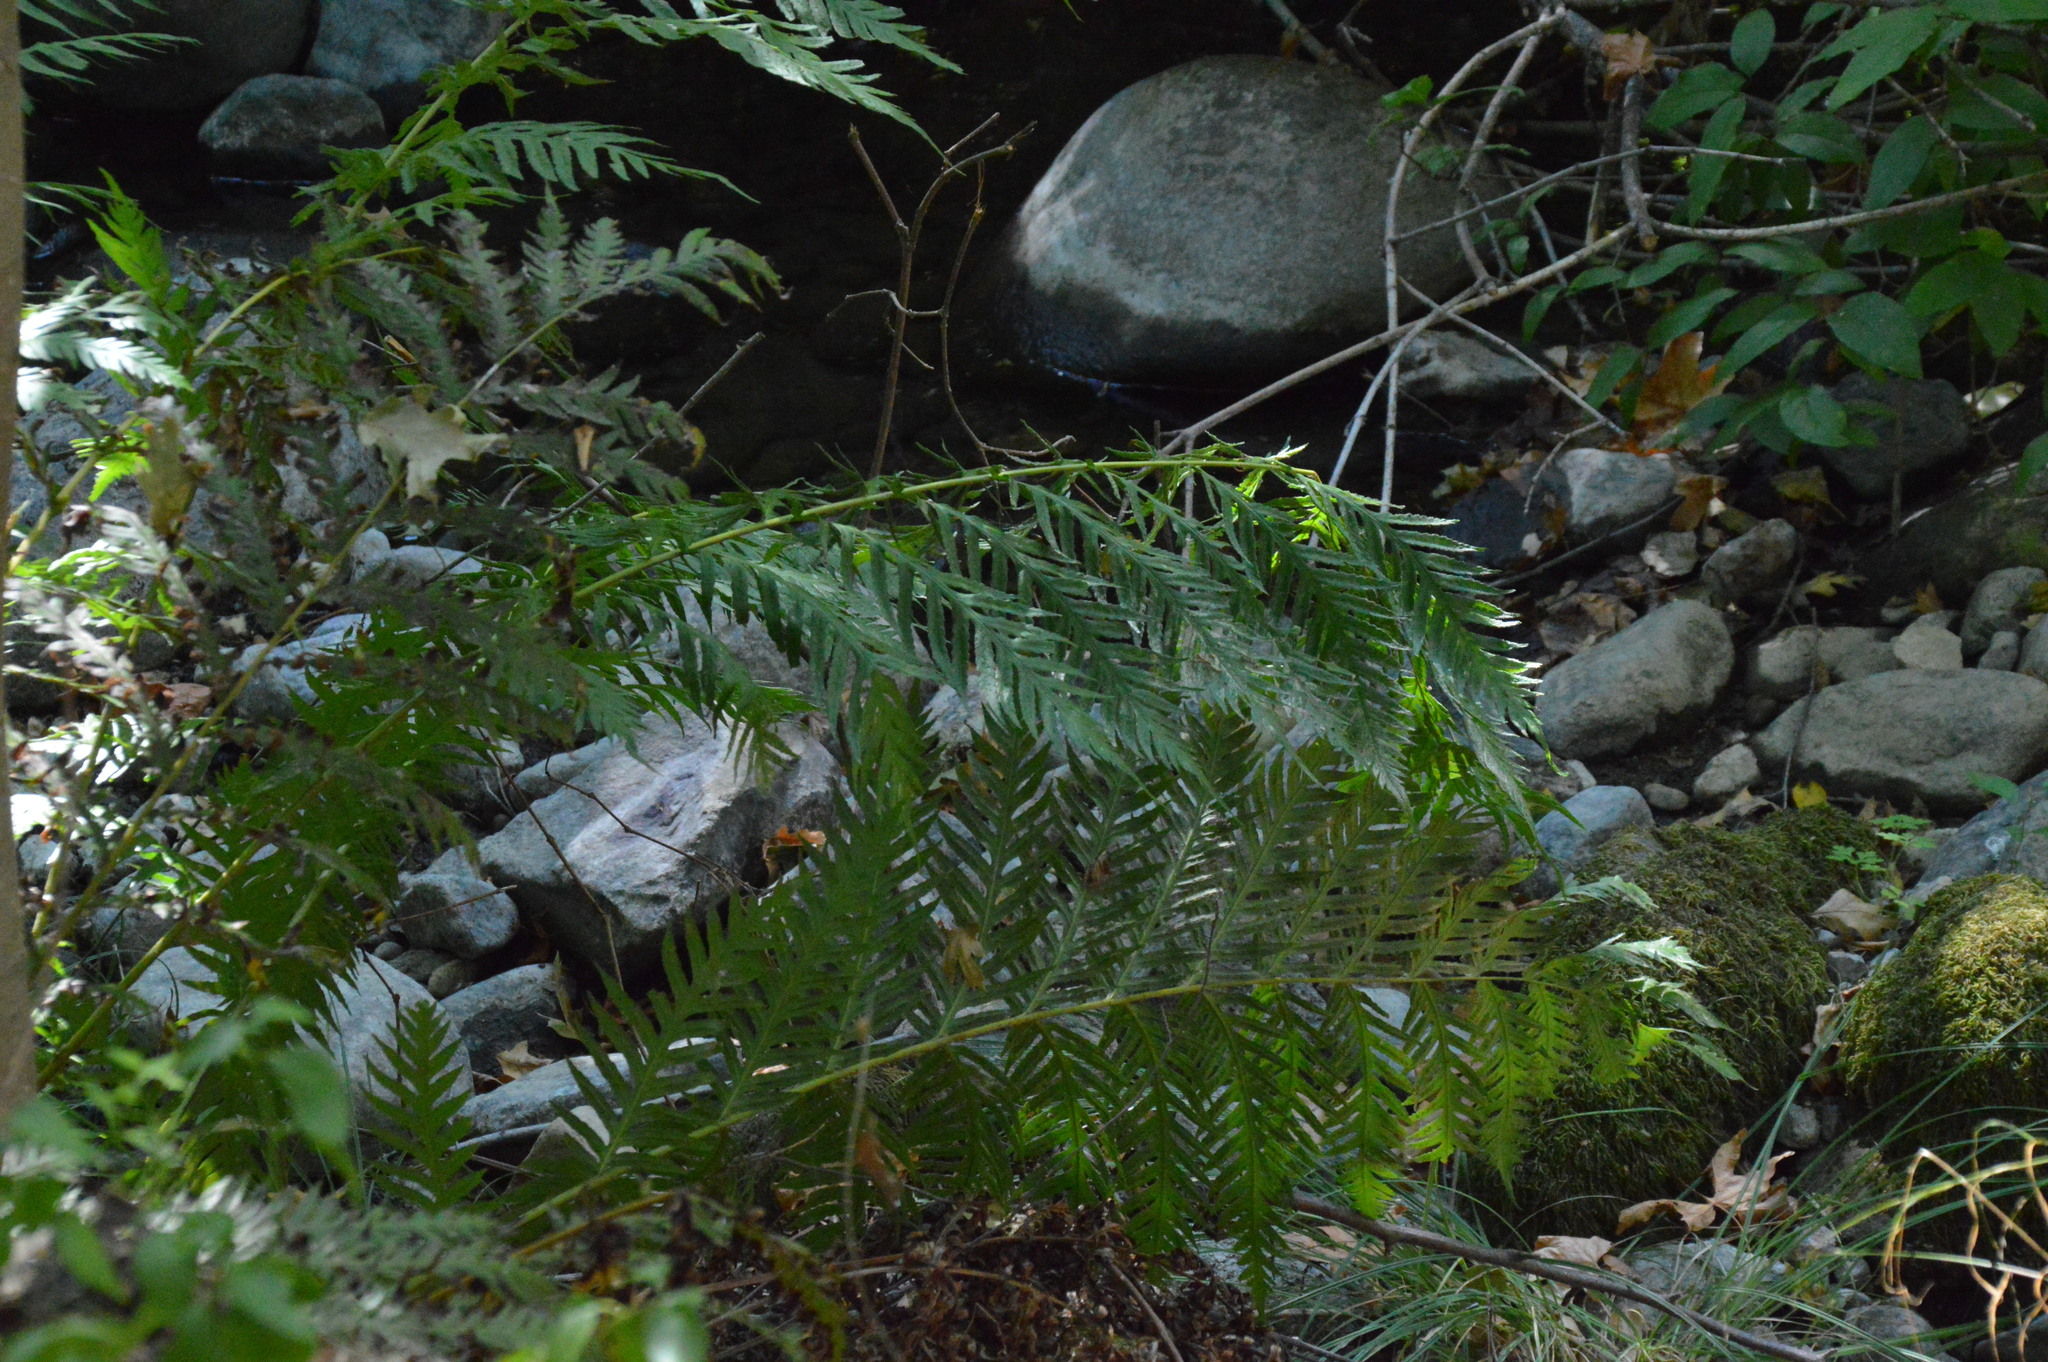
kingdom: Plantae
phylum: Tracheophyta
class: Polypodiopsida
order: Polypodiales
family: Blechnaceae
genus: Woodwardia
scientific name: Woodwardia fimbriata
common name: Giant chain fern
